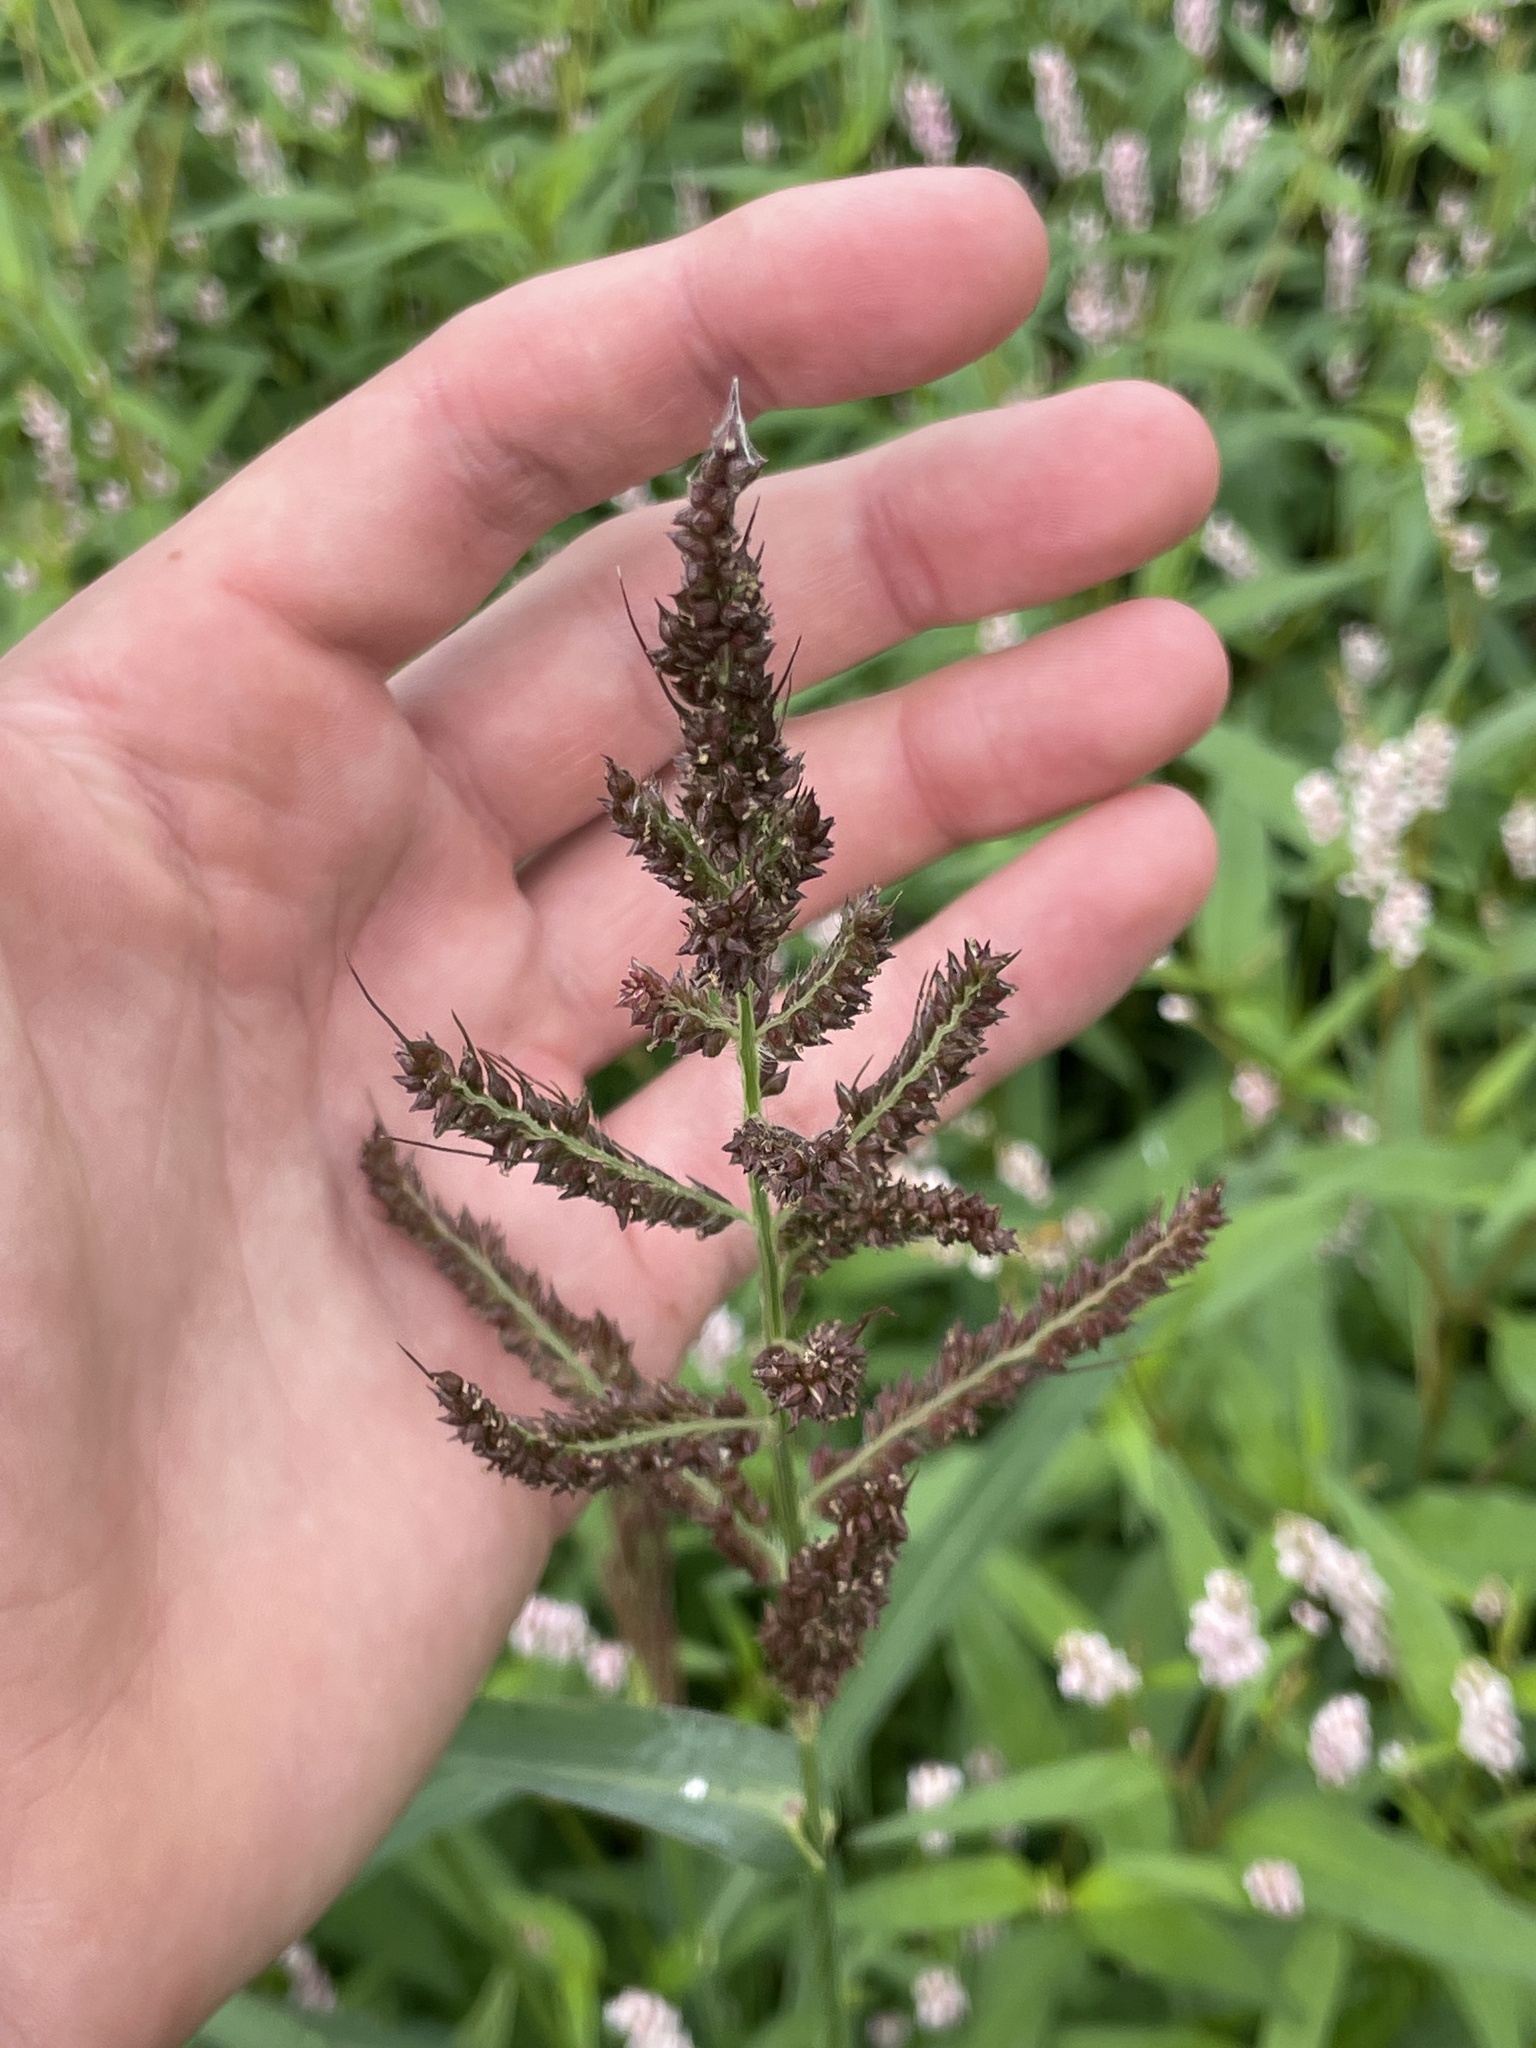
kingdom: Plantae
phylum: Tracheophyta
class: Liliopsida
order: Poales
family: Poaceae
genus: Echinochloa
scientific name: Echinochloa crus-galli
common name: Cockspur
